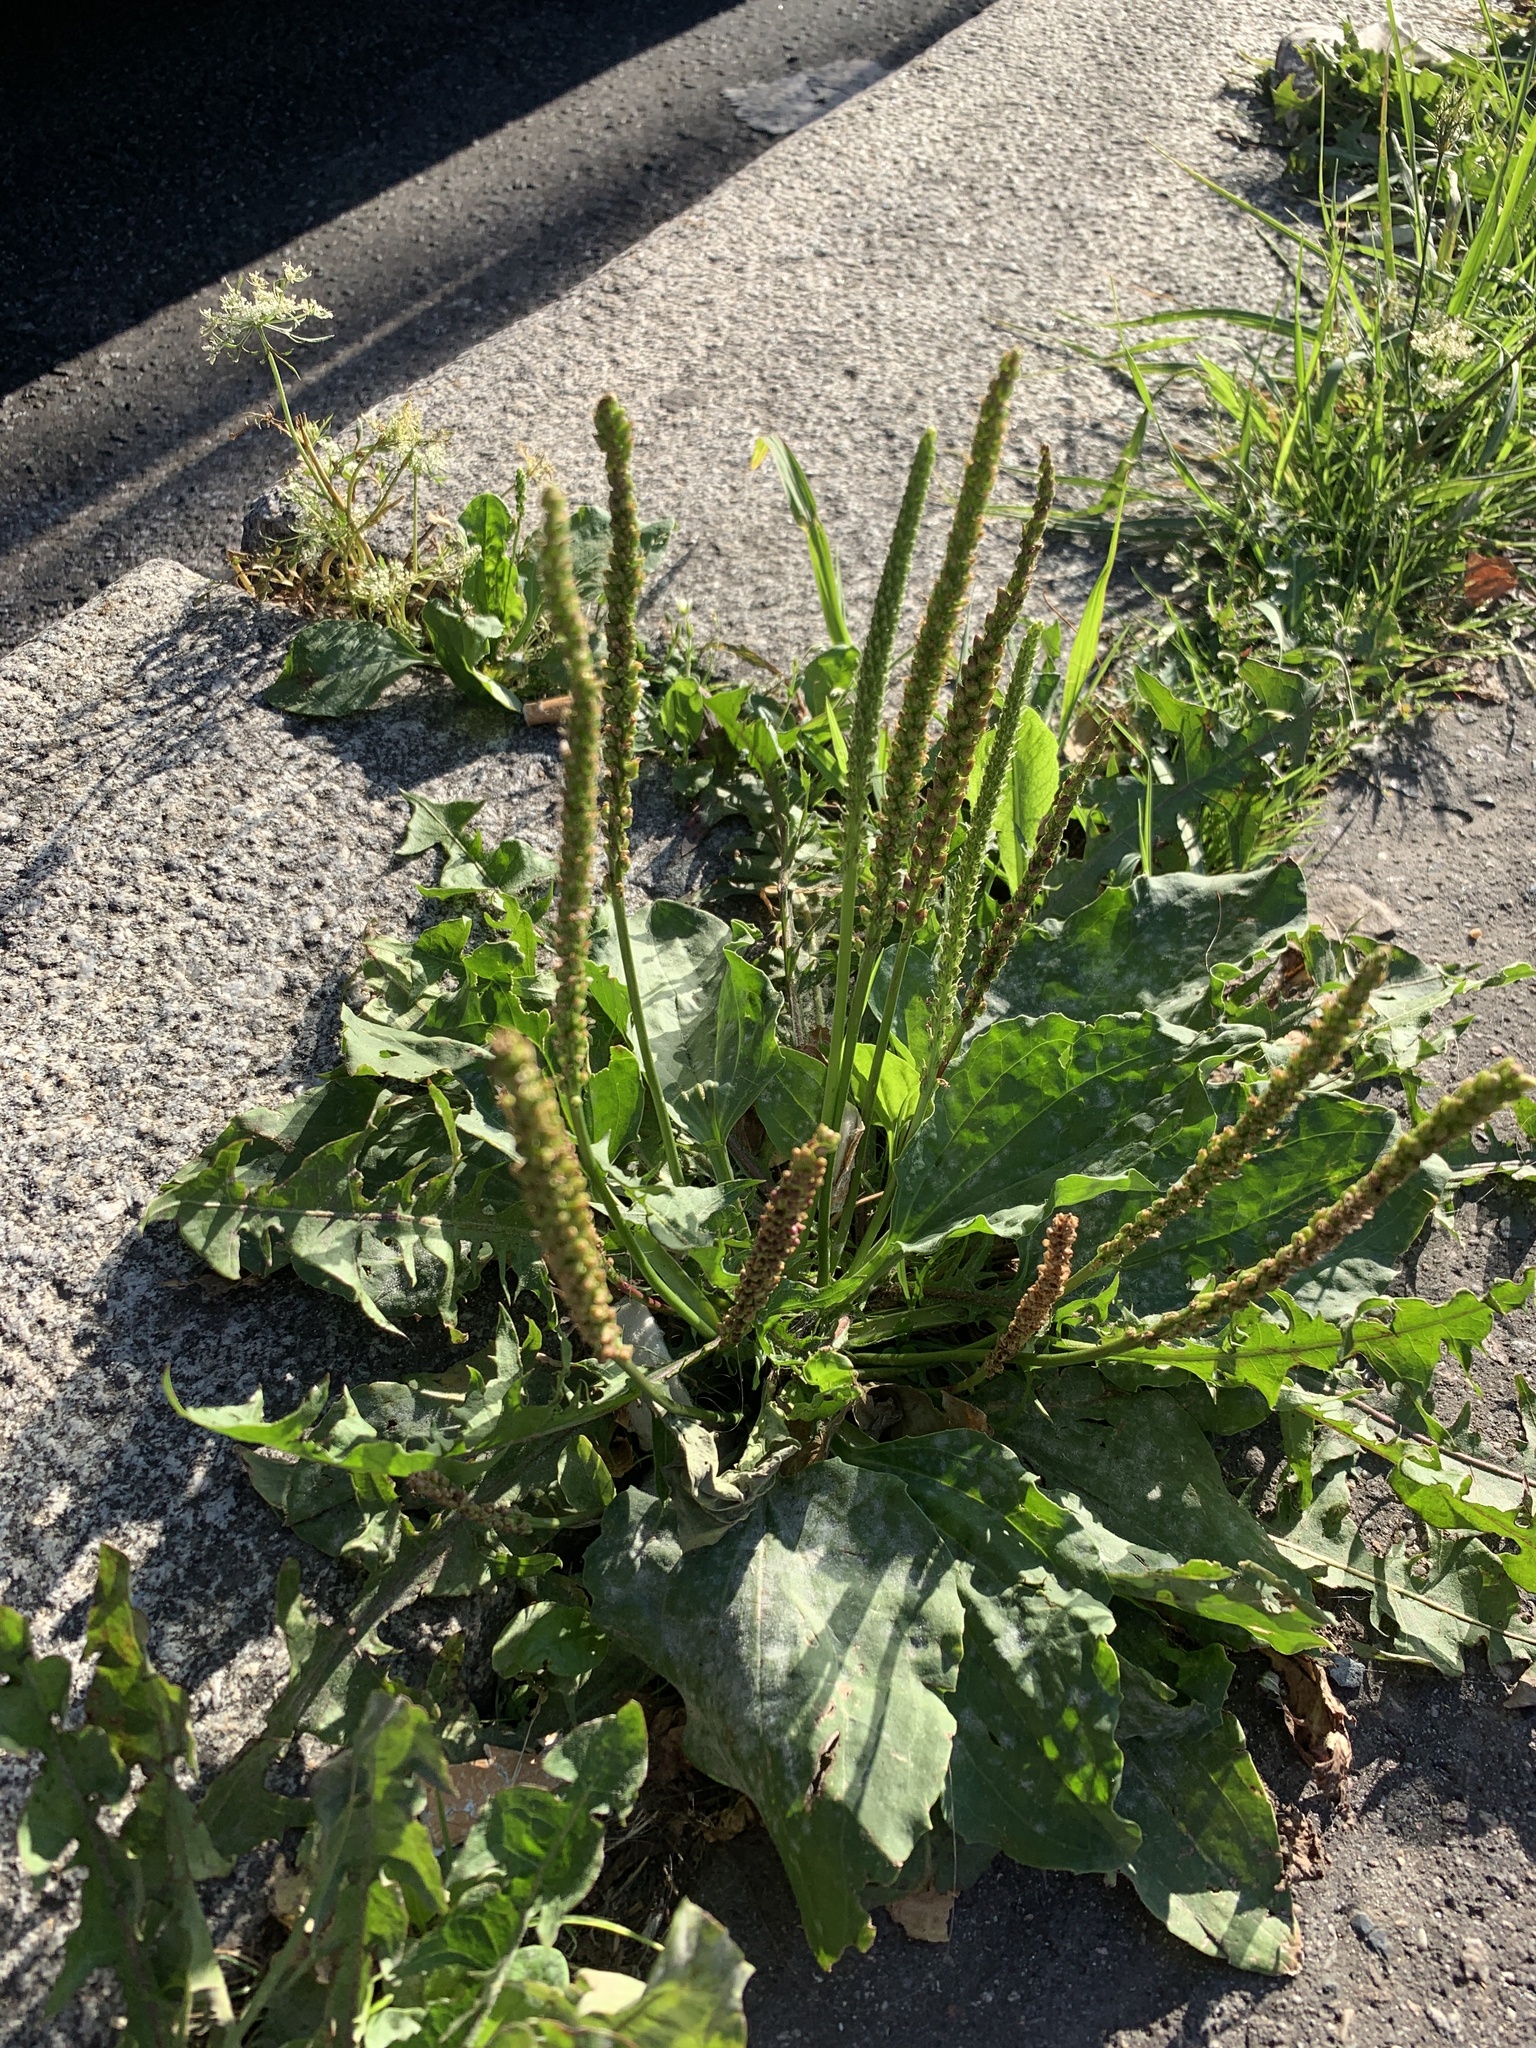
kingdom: Plantae
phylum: Tracheophyta
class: Magnoliopsida
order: Lamiales
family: Plantaginaceae
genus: Plantago
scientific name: Plantago major
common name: Common plantain
